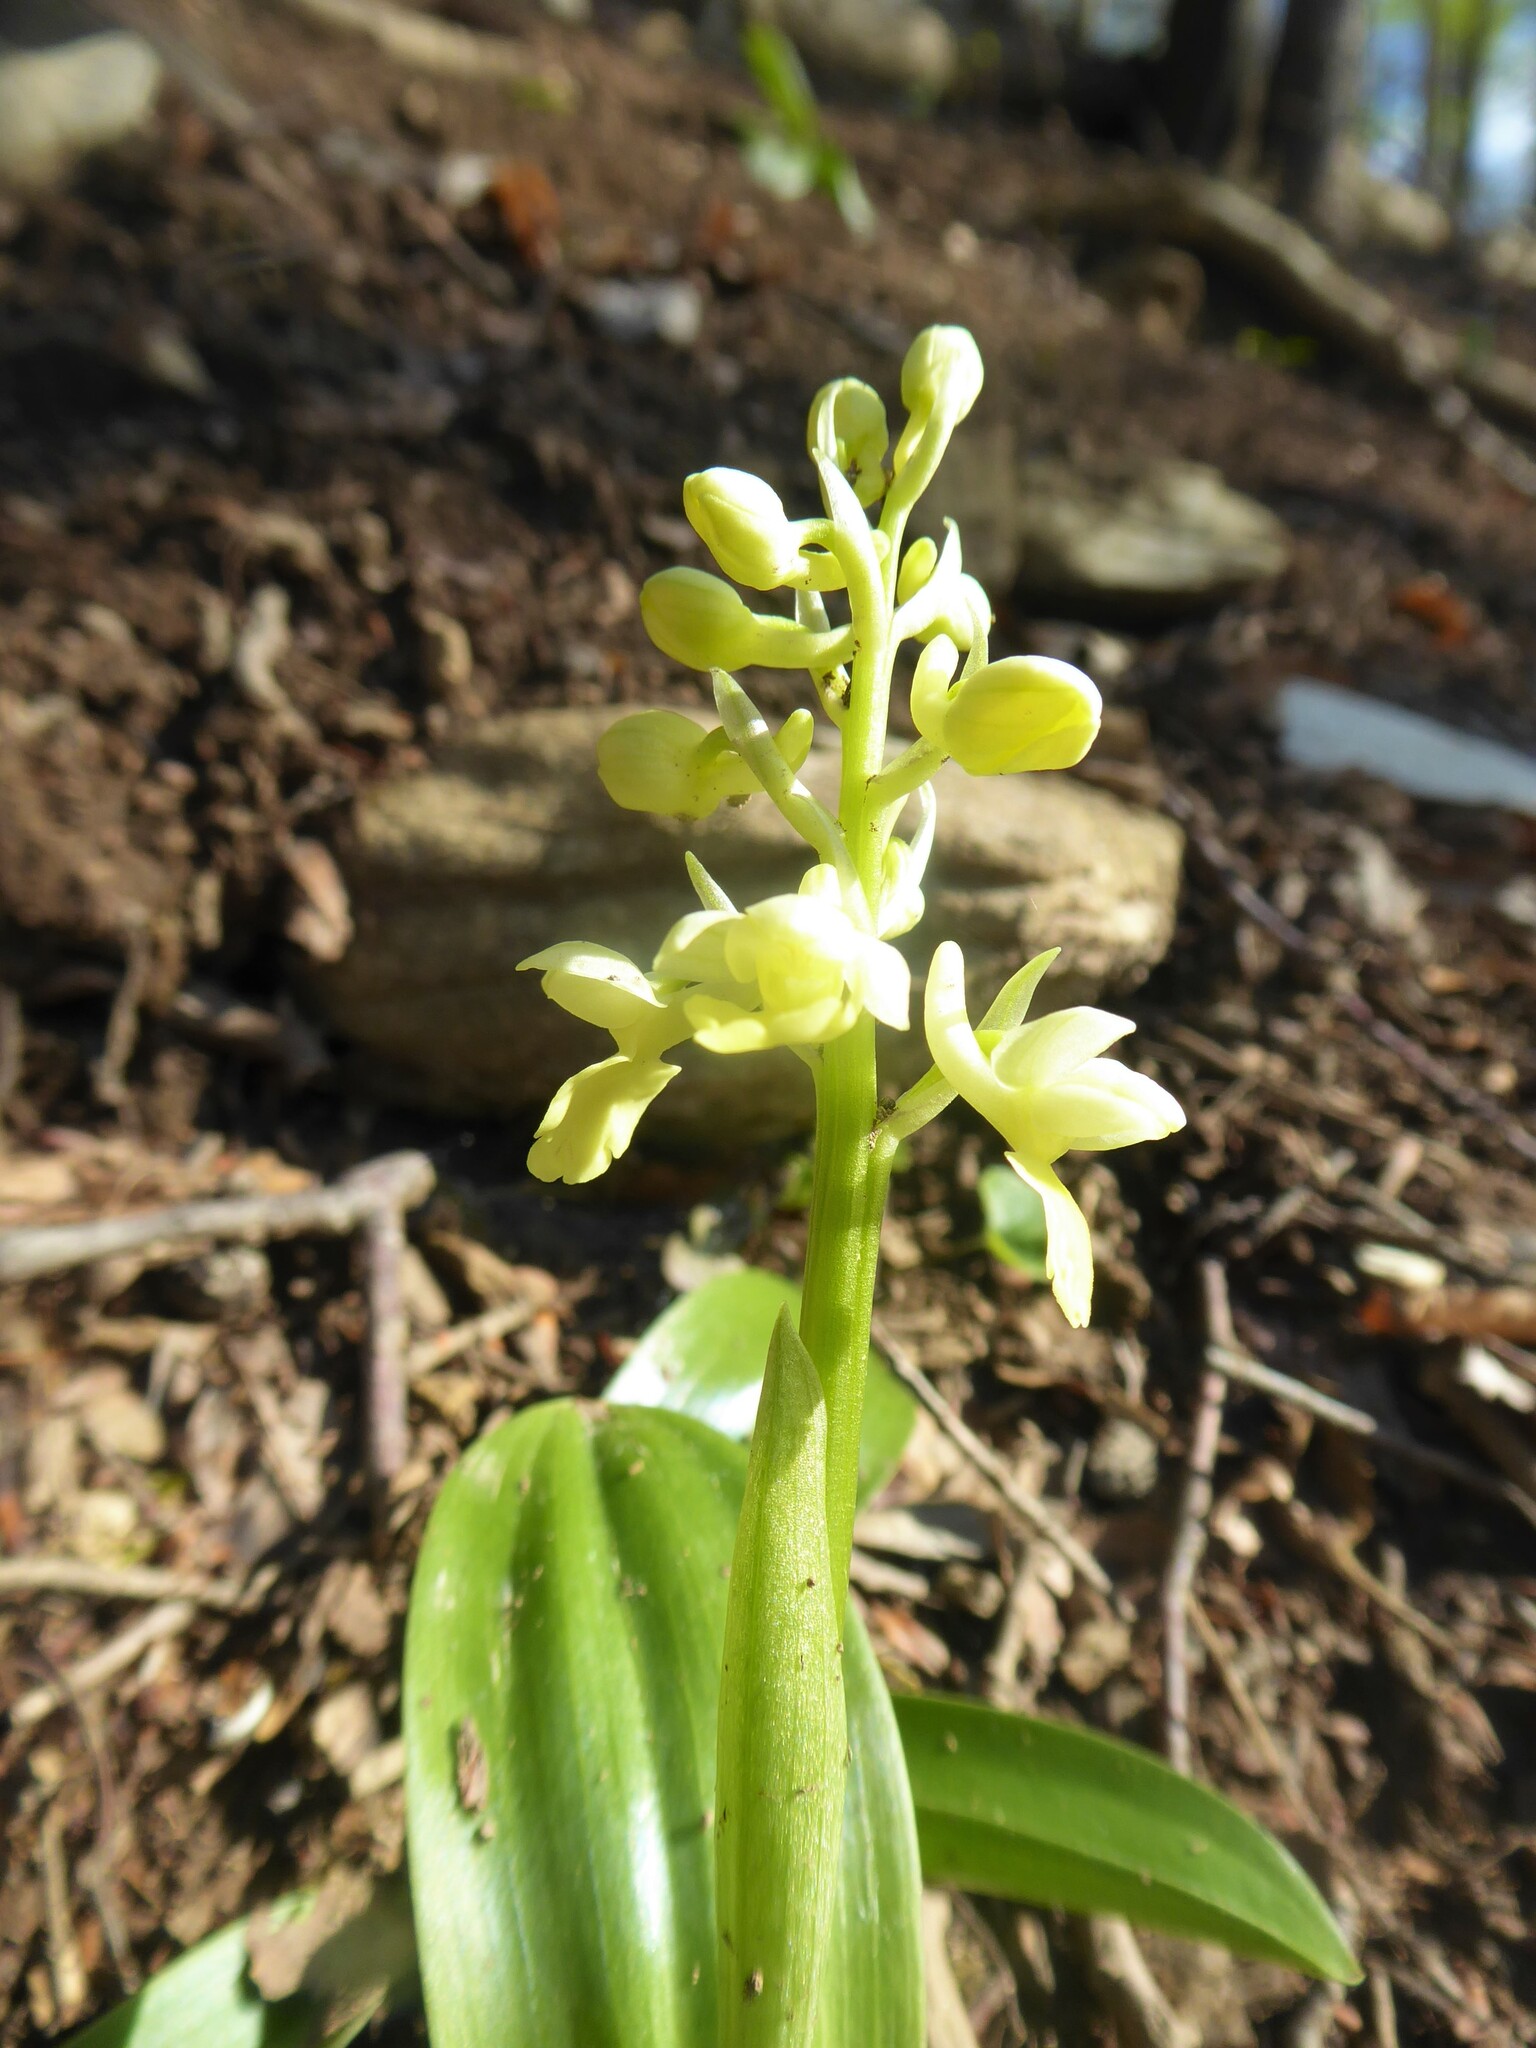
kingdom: Plantae
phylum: Tracheophyta
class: Liliopsida
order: Asparagales
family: Orchidaceae
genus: Orchis
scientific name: Orchis pallens
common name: Pale-flowered orchid
